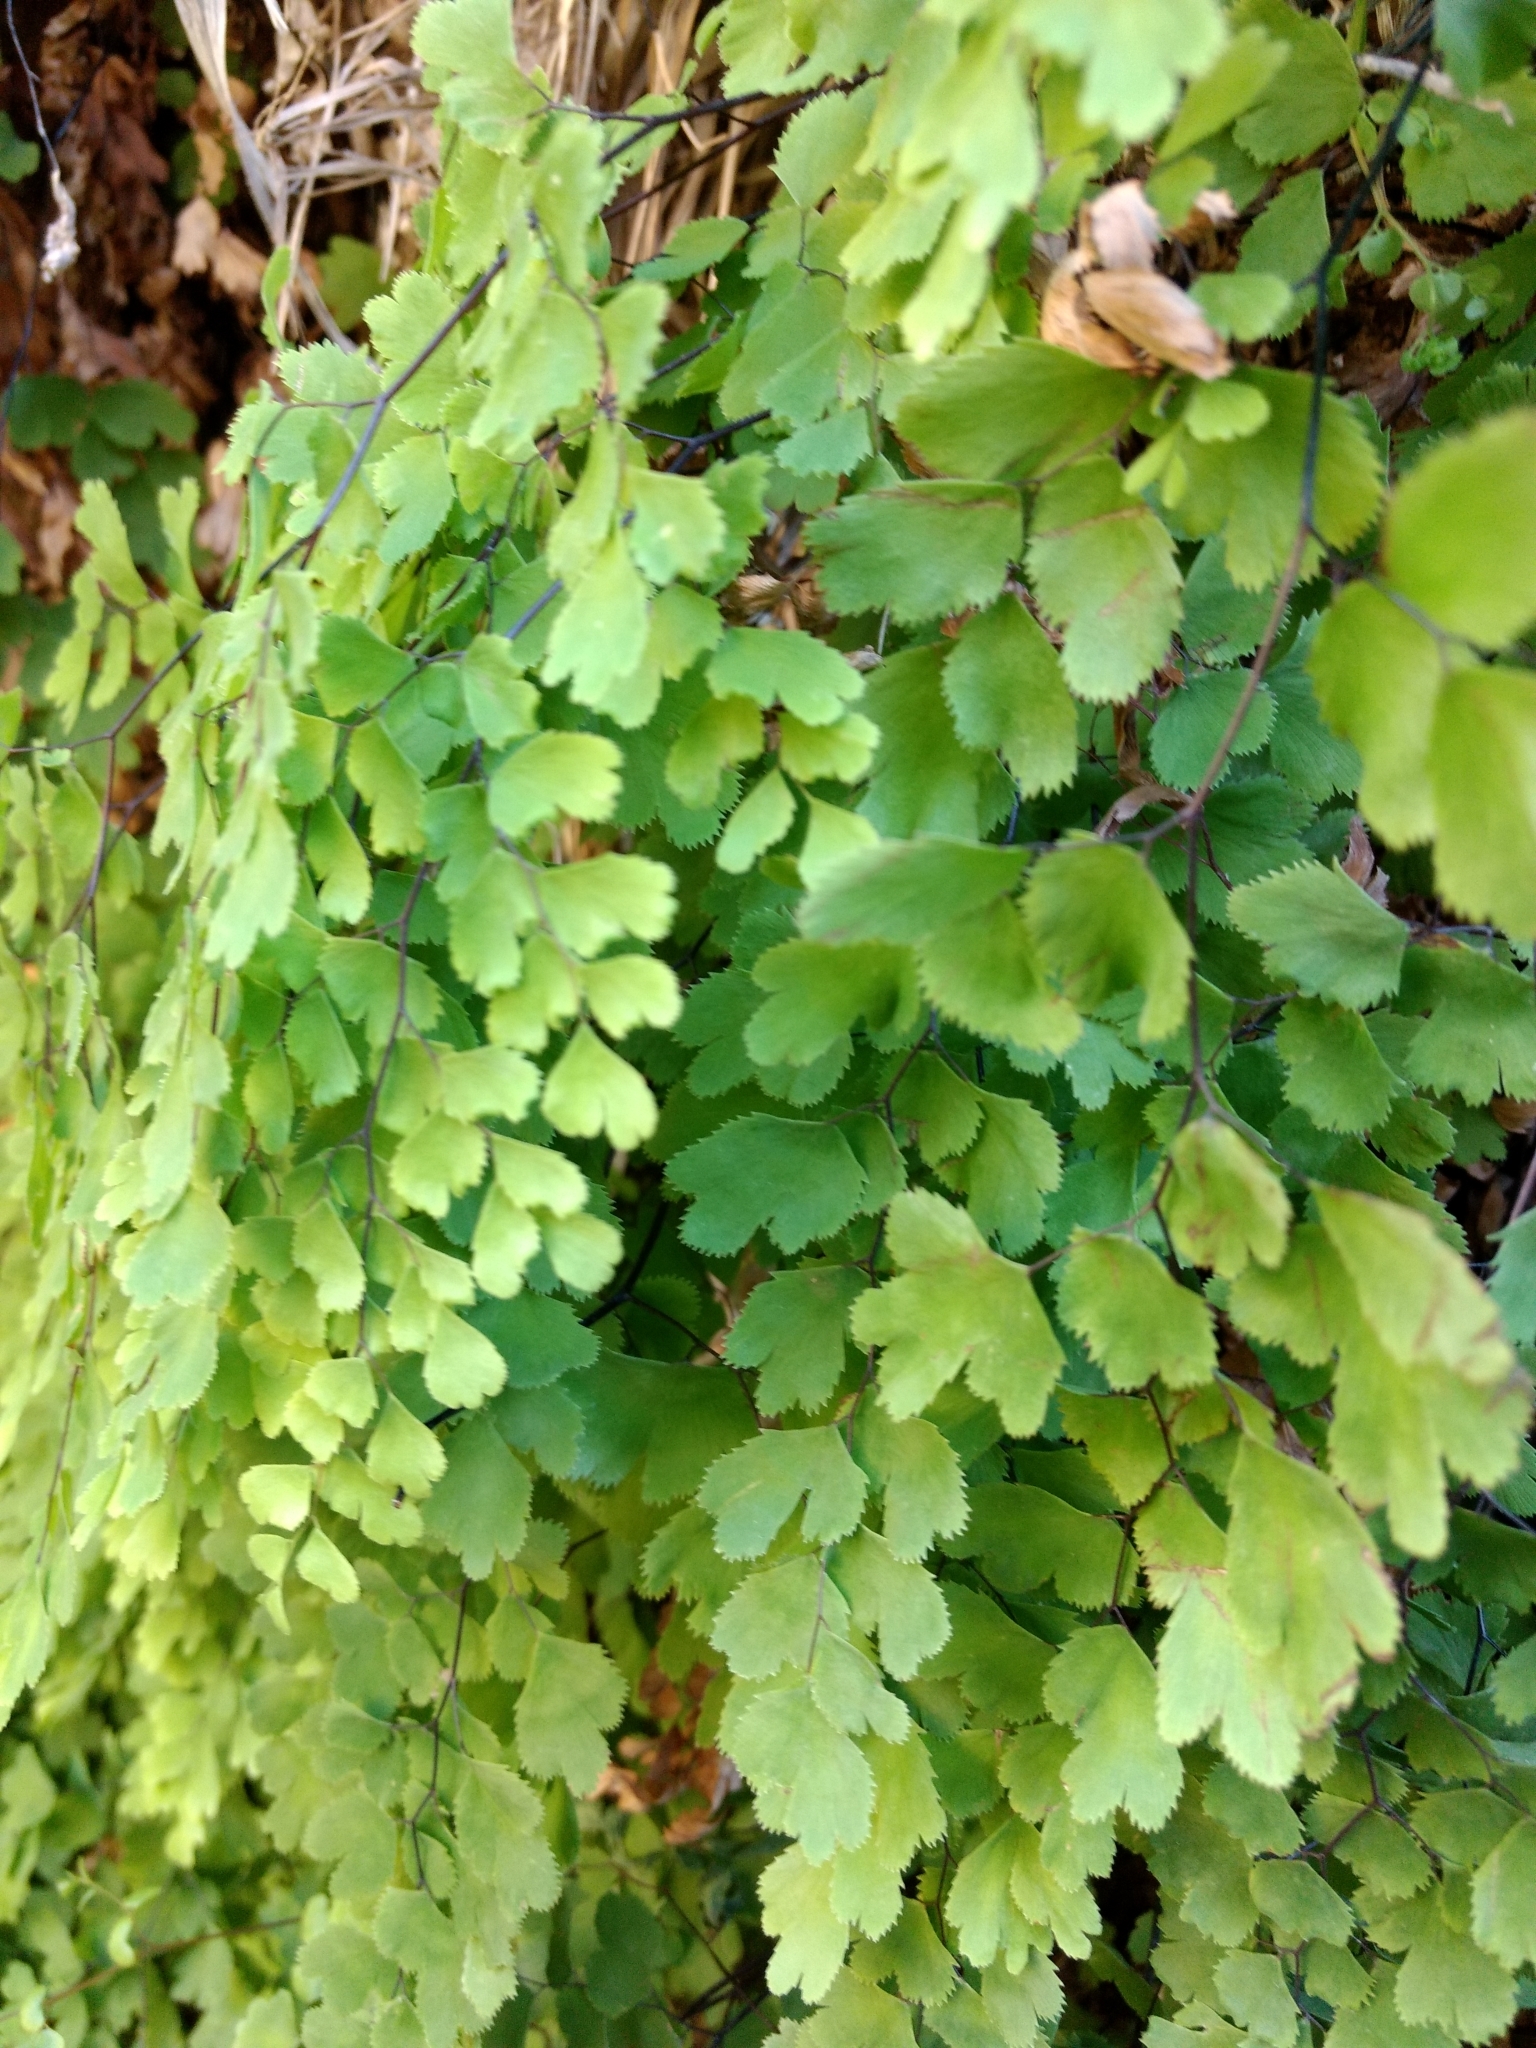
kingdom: Plantae
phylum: Tracheophyta
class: Polypodiopsida
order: Polypodiales
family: Pteridaceae
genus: Adiantum
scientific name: Adiantum capillus-veneris
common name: Maidenhair fern
